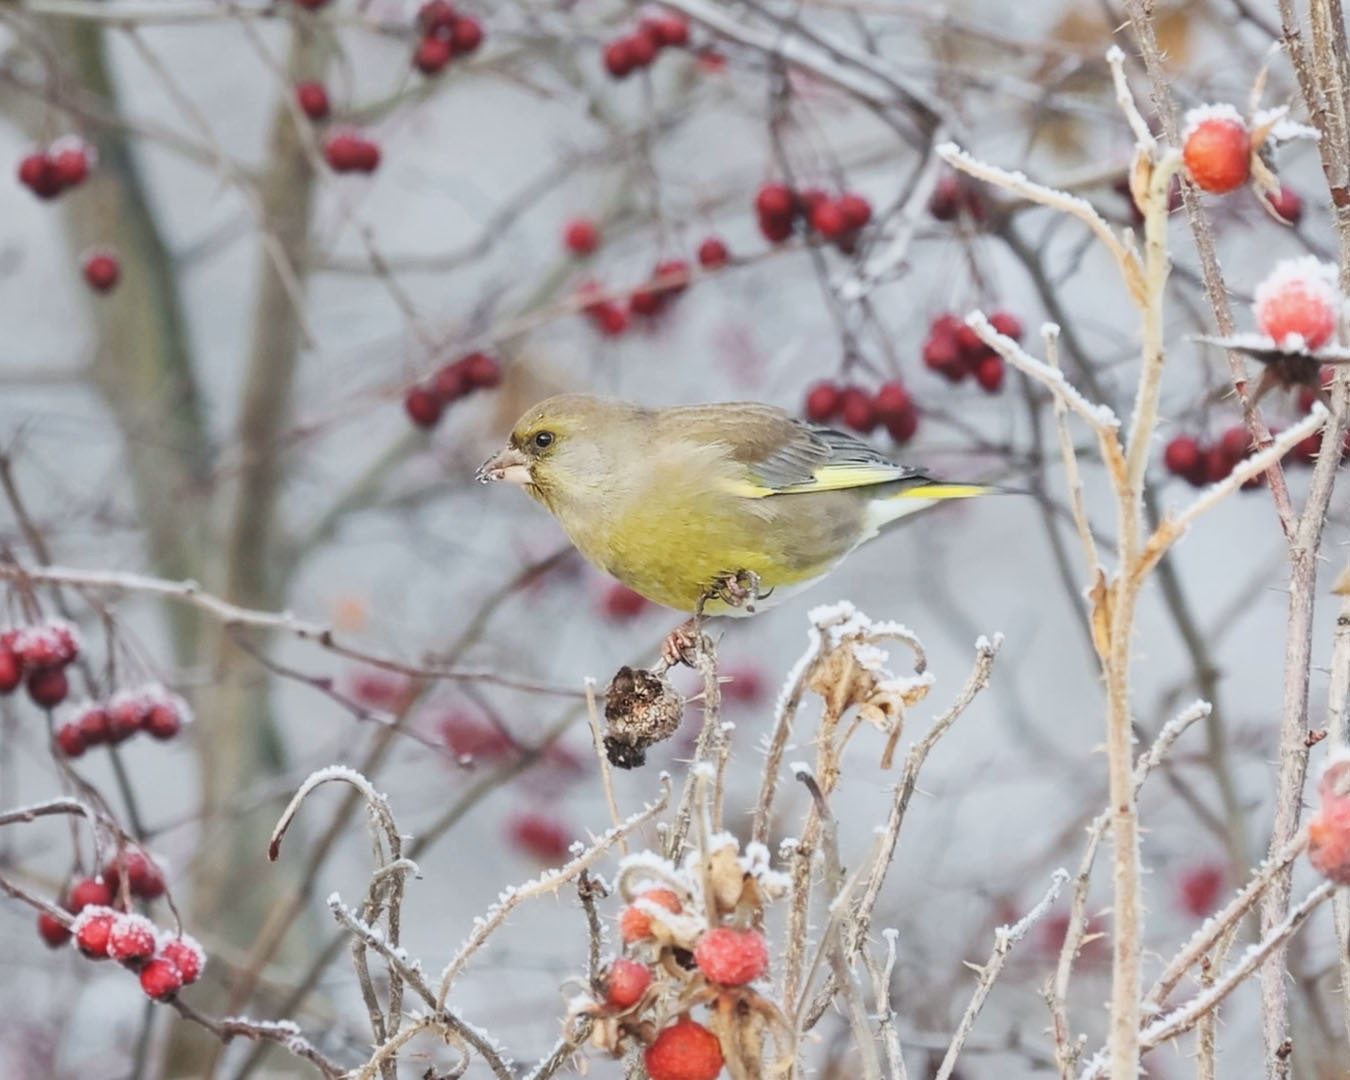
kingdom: Plantae
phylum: Tracheophyta
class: Liliopsida
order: Poales
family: Poaceae
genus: Chloris
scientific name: Chloris chloris
